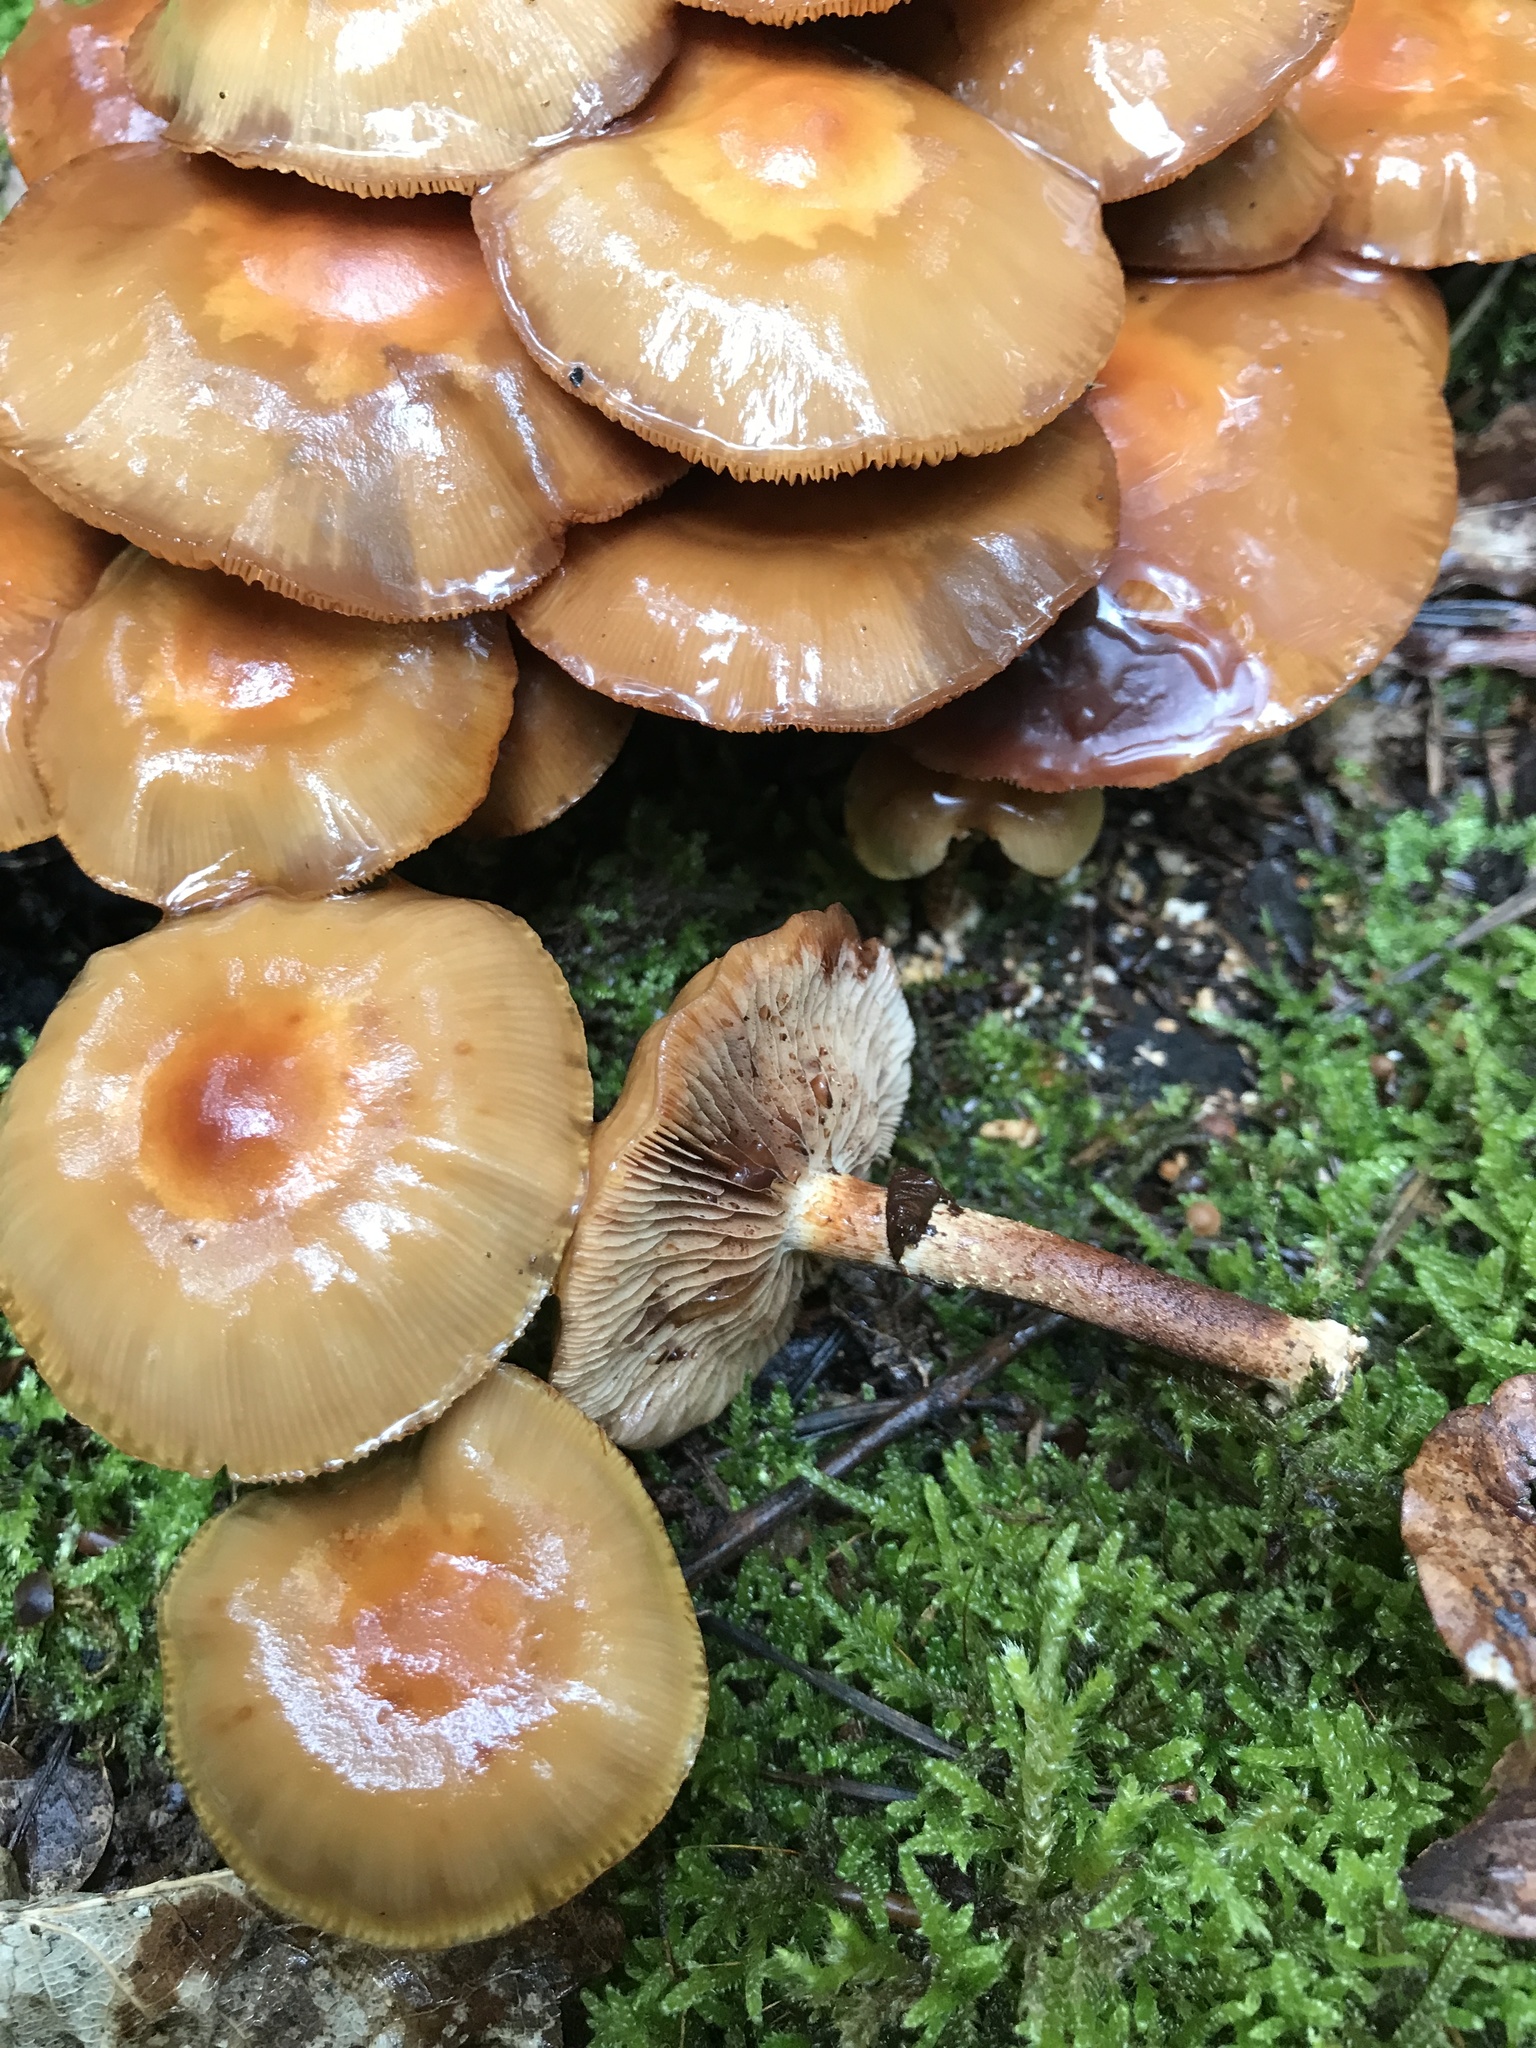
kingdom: Fungi
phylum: Basidiomycota
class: Agaricomycetes
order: Agaricales
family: Strophariaceae
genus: Kuehneromyces
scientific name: Kuehneromyces mutabilis
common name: Sheathed woodtuft
